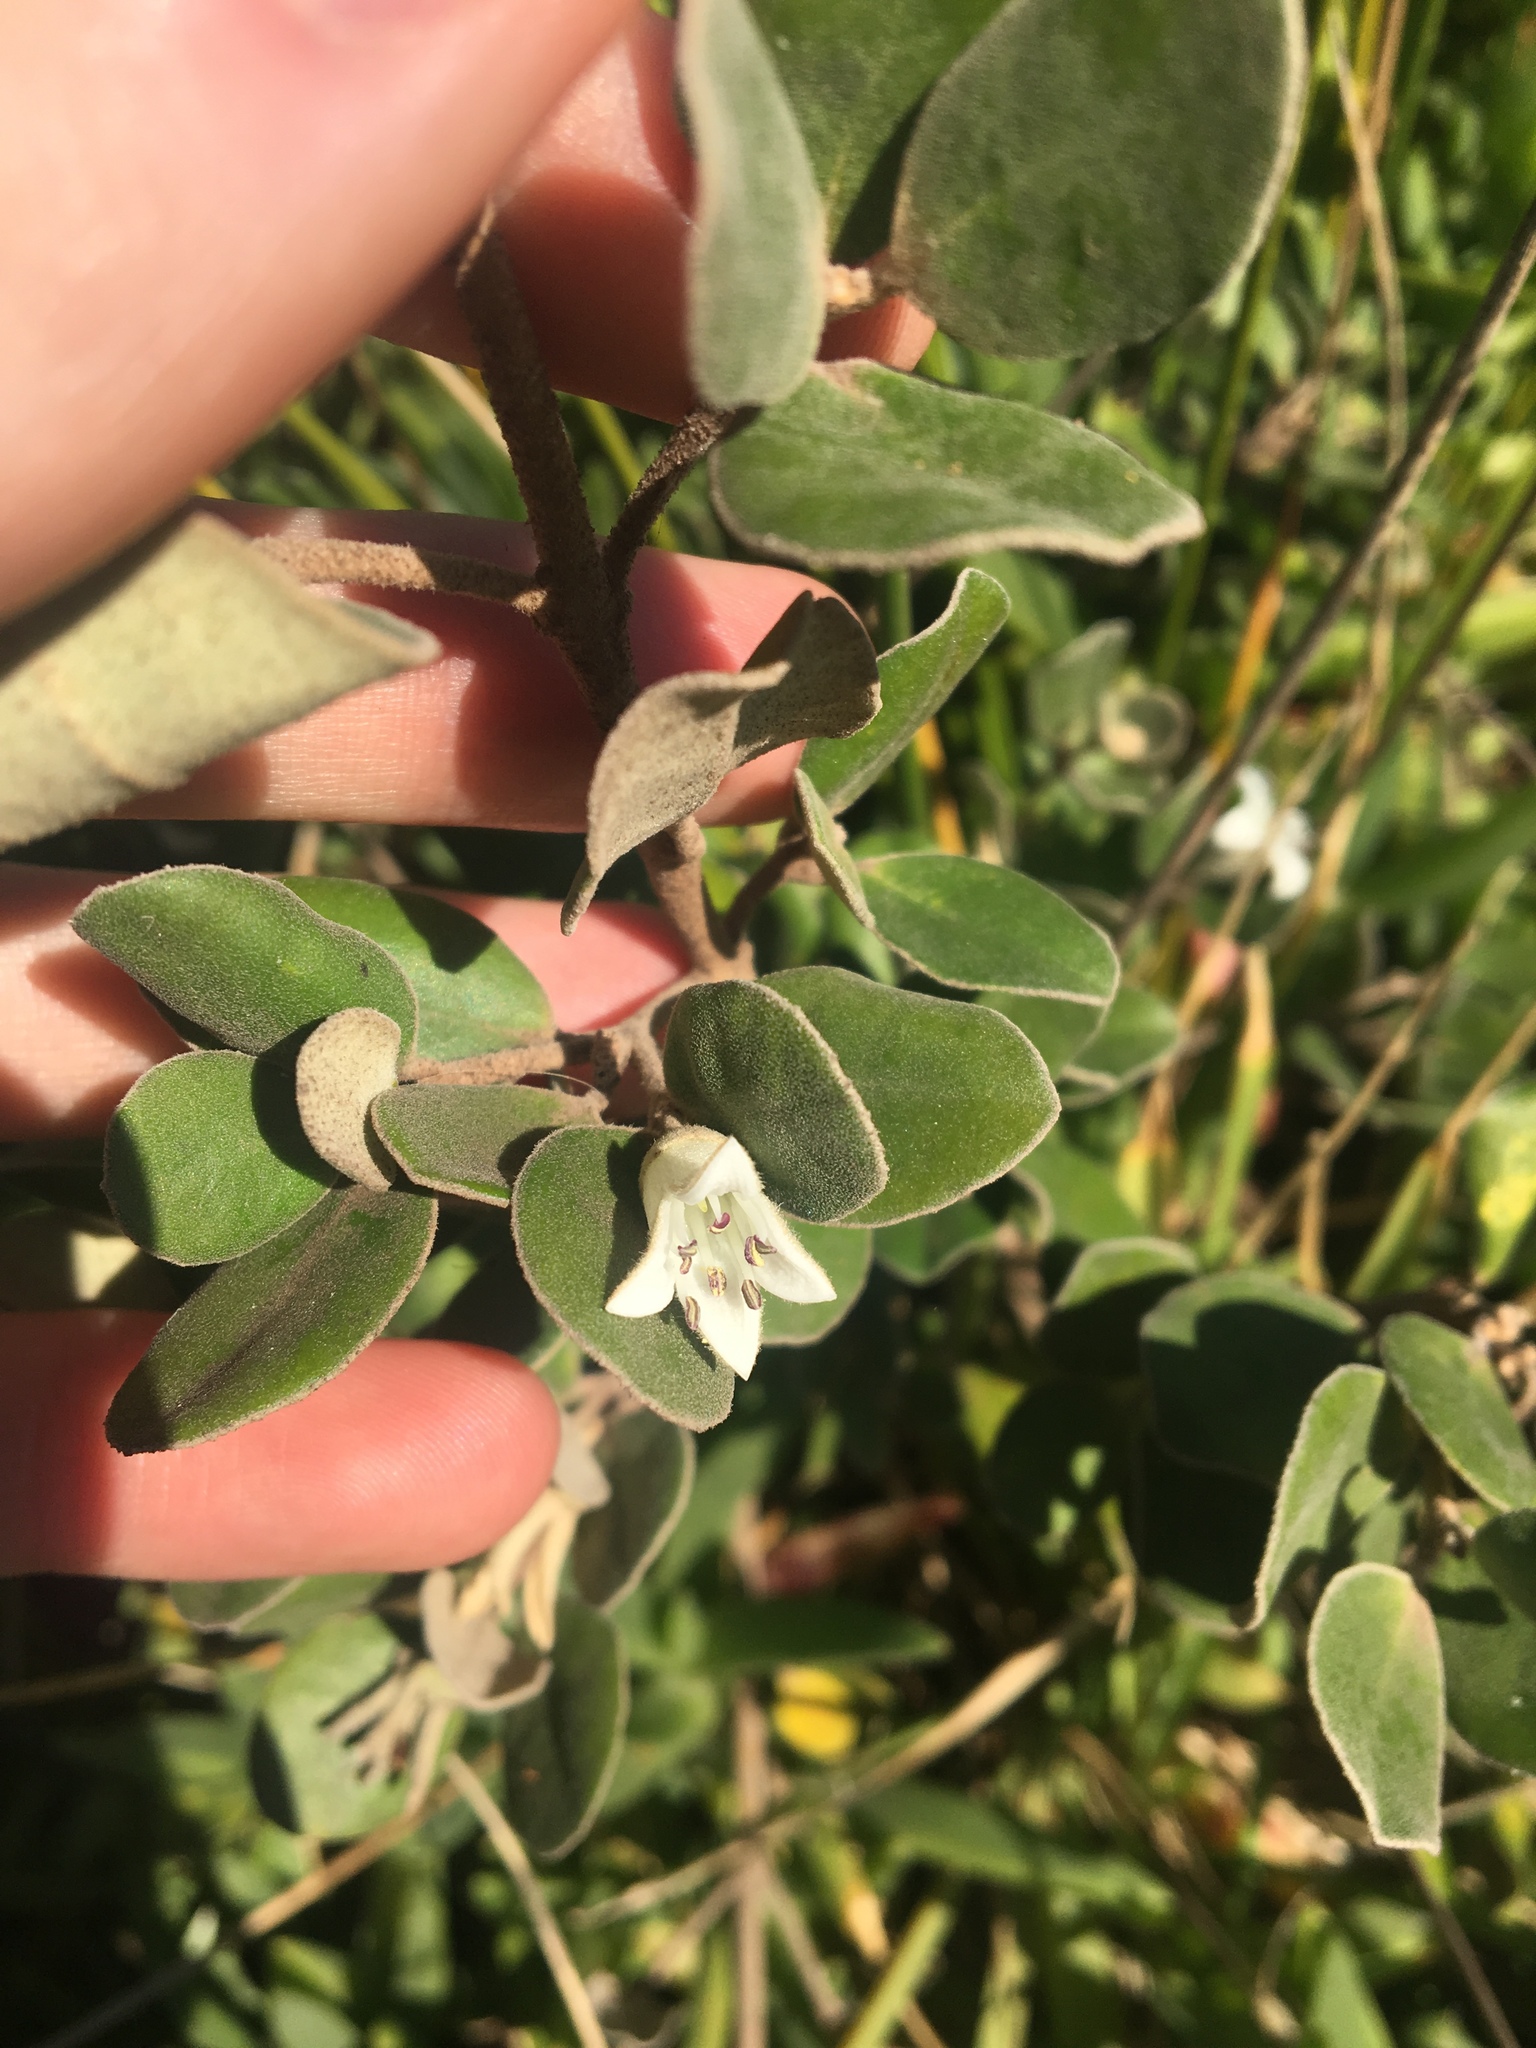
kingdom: Plantae
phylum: Tracheophyta
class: Magnoliopsida
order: Sapindales
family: Rutaceae
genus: Correa
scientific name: Correa alba
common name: White correa
